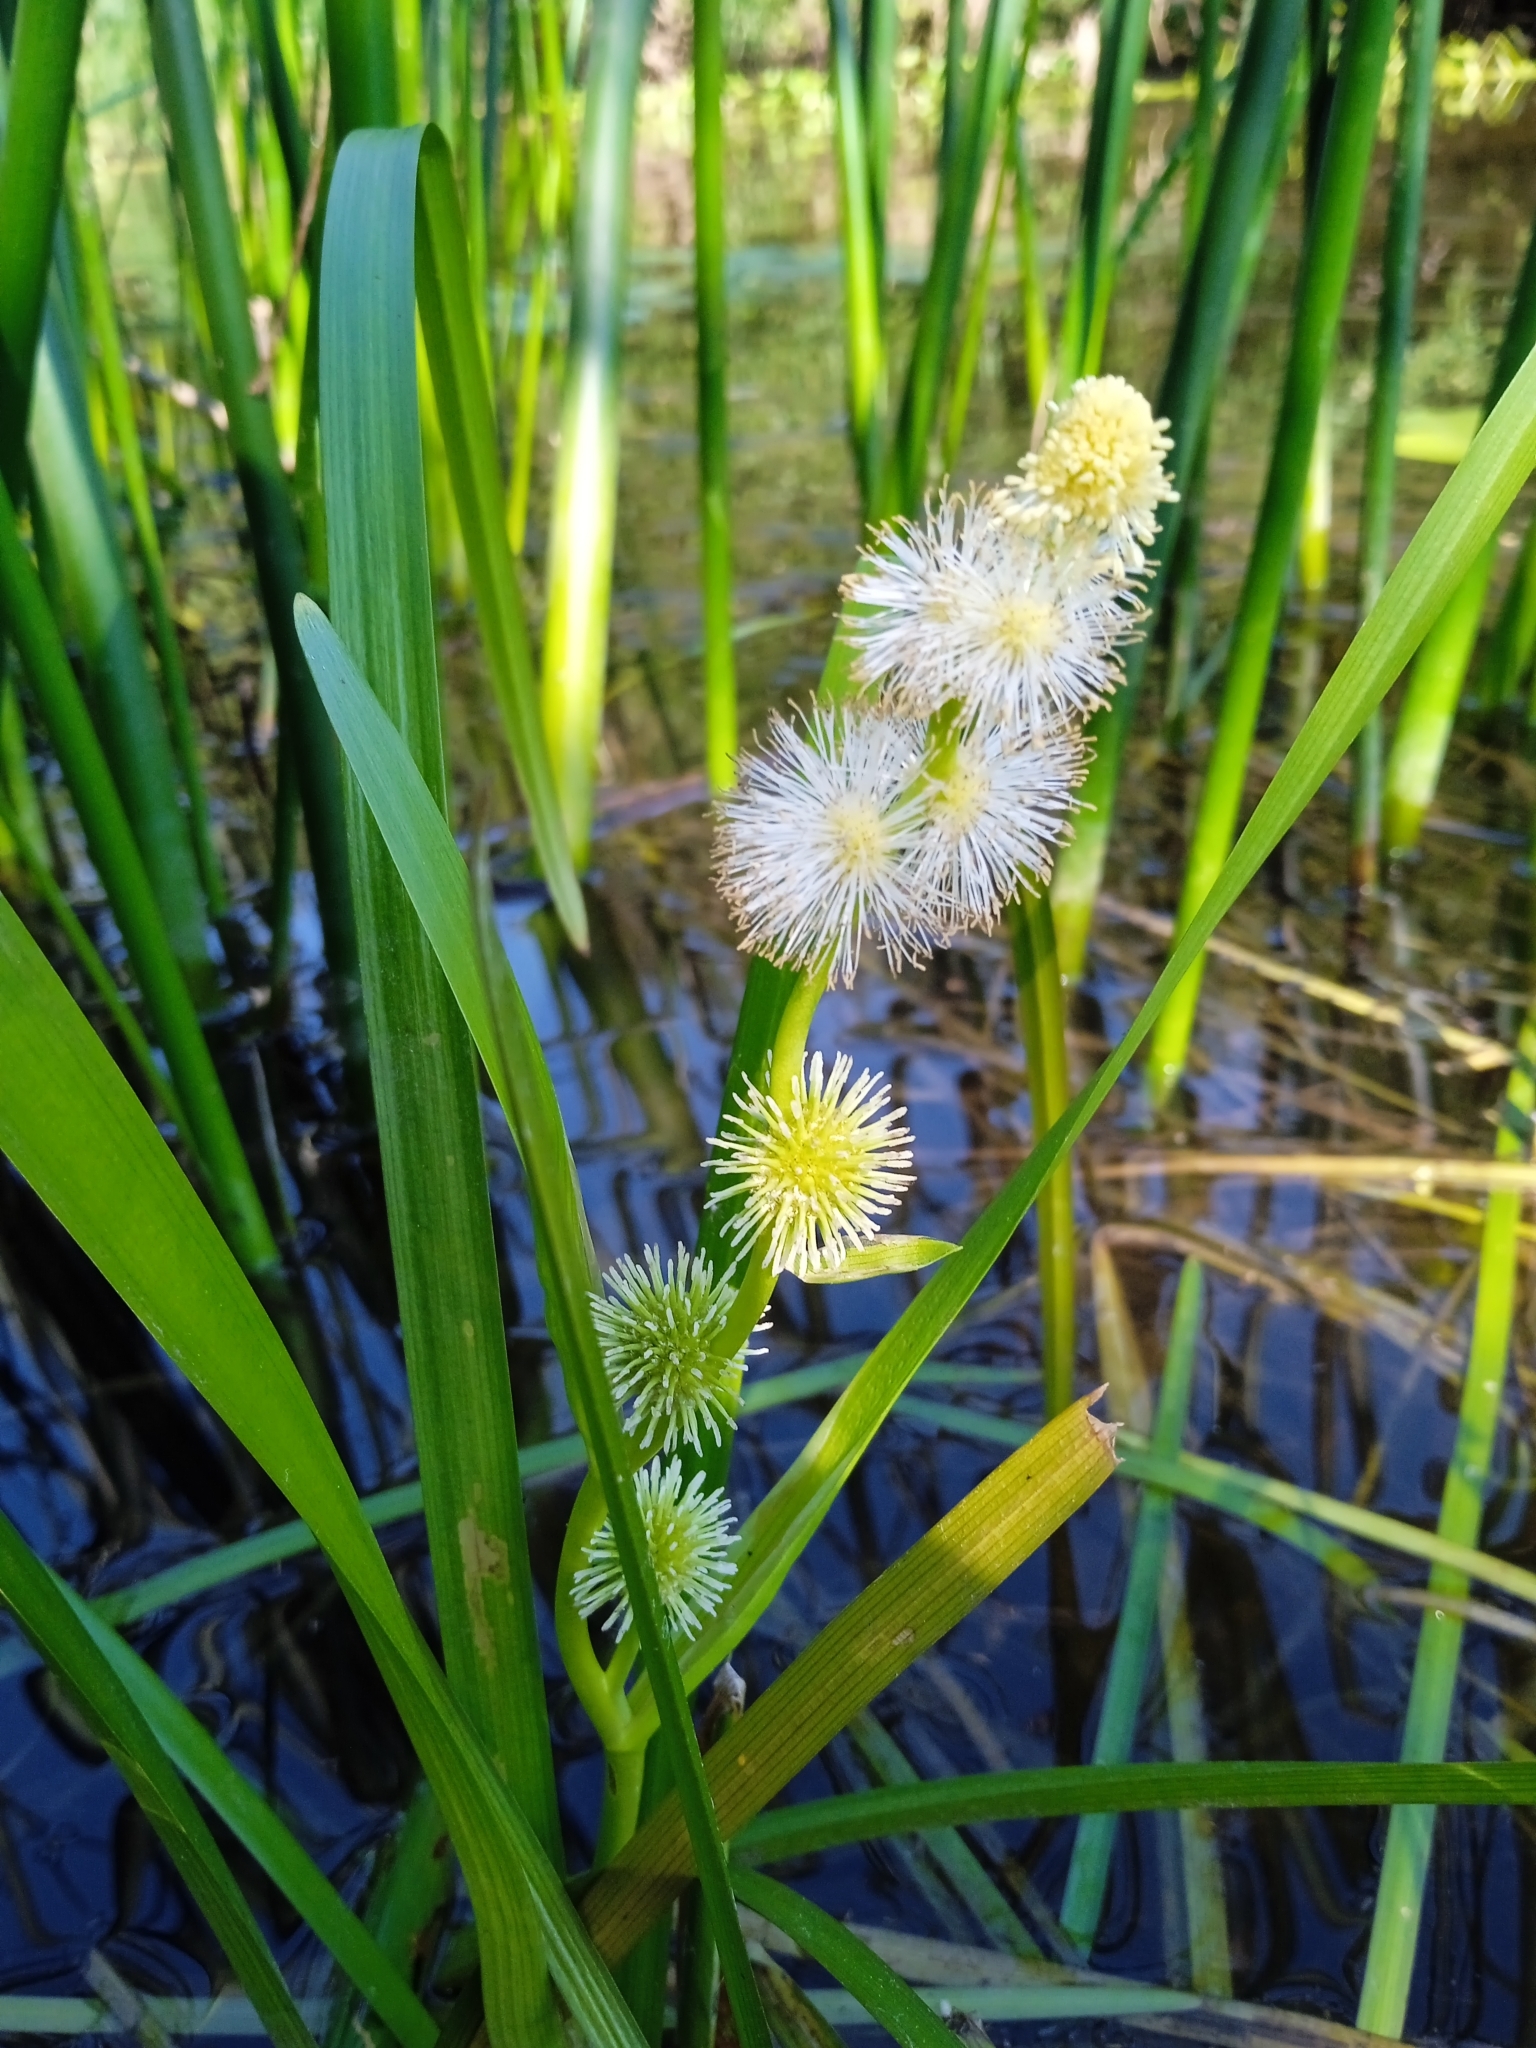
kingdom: Plantae
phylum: Tracheophyta
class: Liliopsida
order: Poales
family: Typhaceae
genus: Sparganium
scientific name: Sparganium emersum
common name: Unbranched bur-reed
